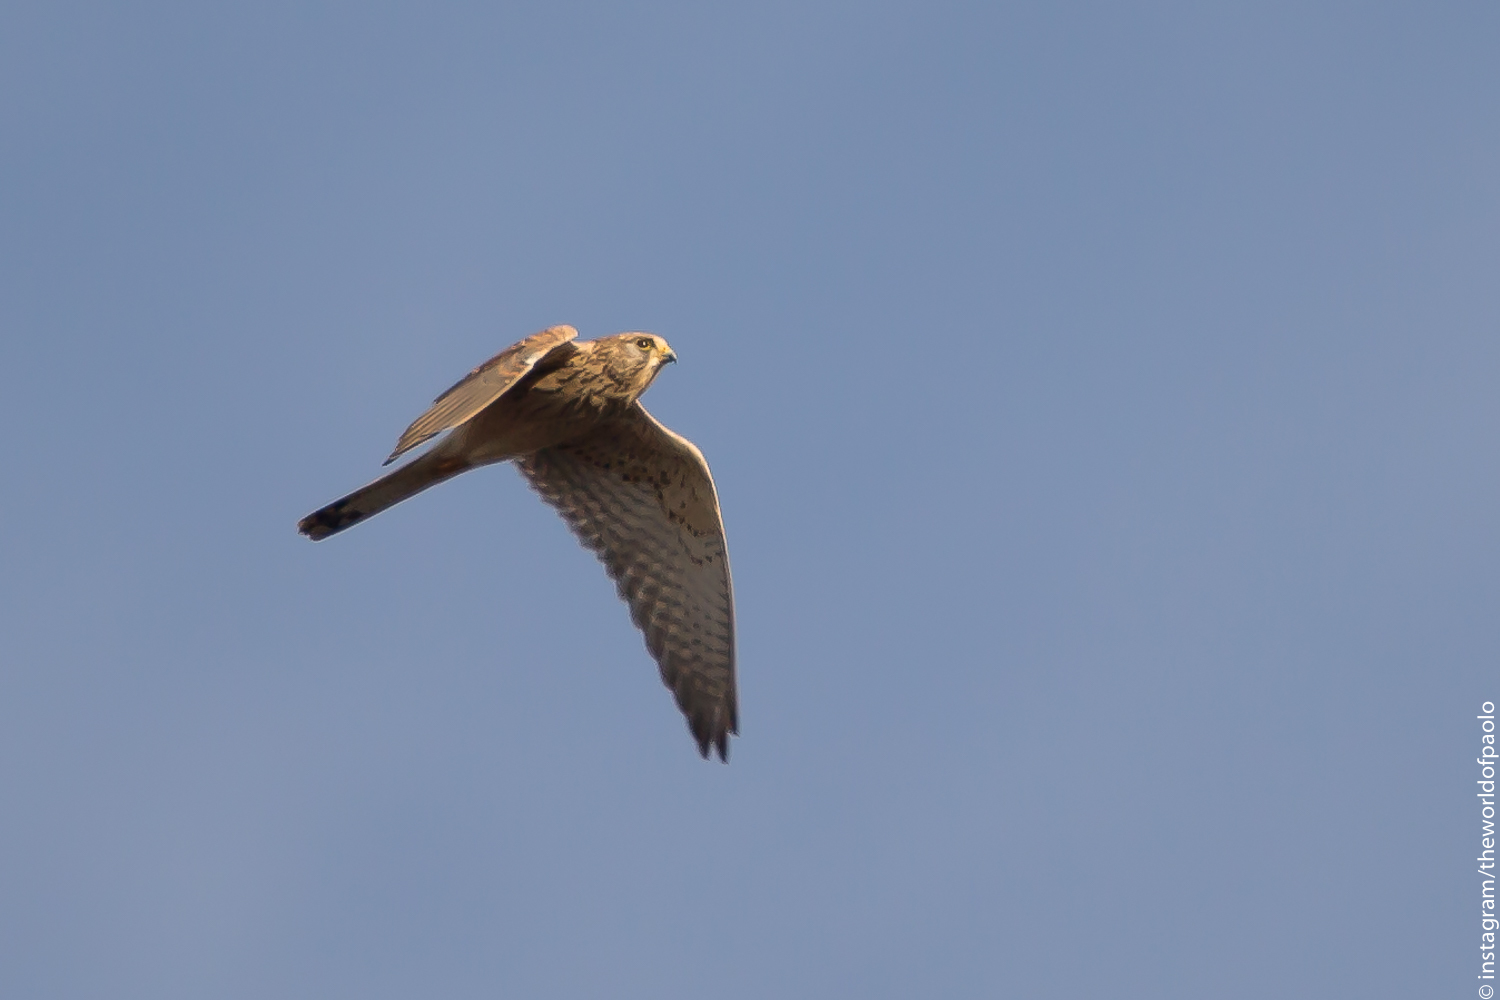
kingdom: Animalia
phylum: Chordata
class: Aves
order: Falconiformes
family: Falconidae
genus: Falco
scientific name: Falco tinnunculus
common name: Common kestrel
